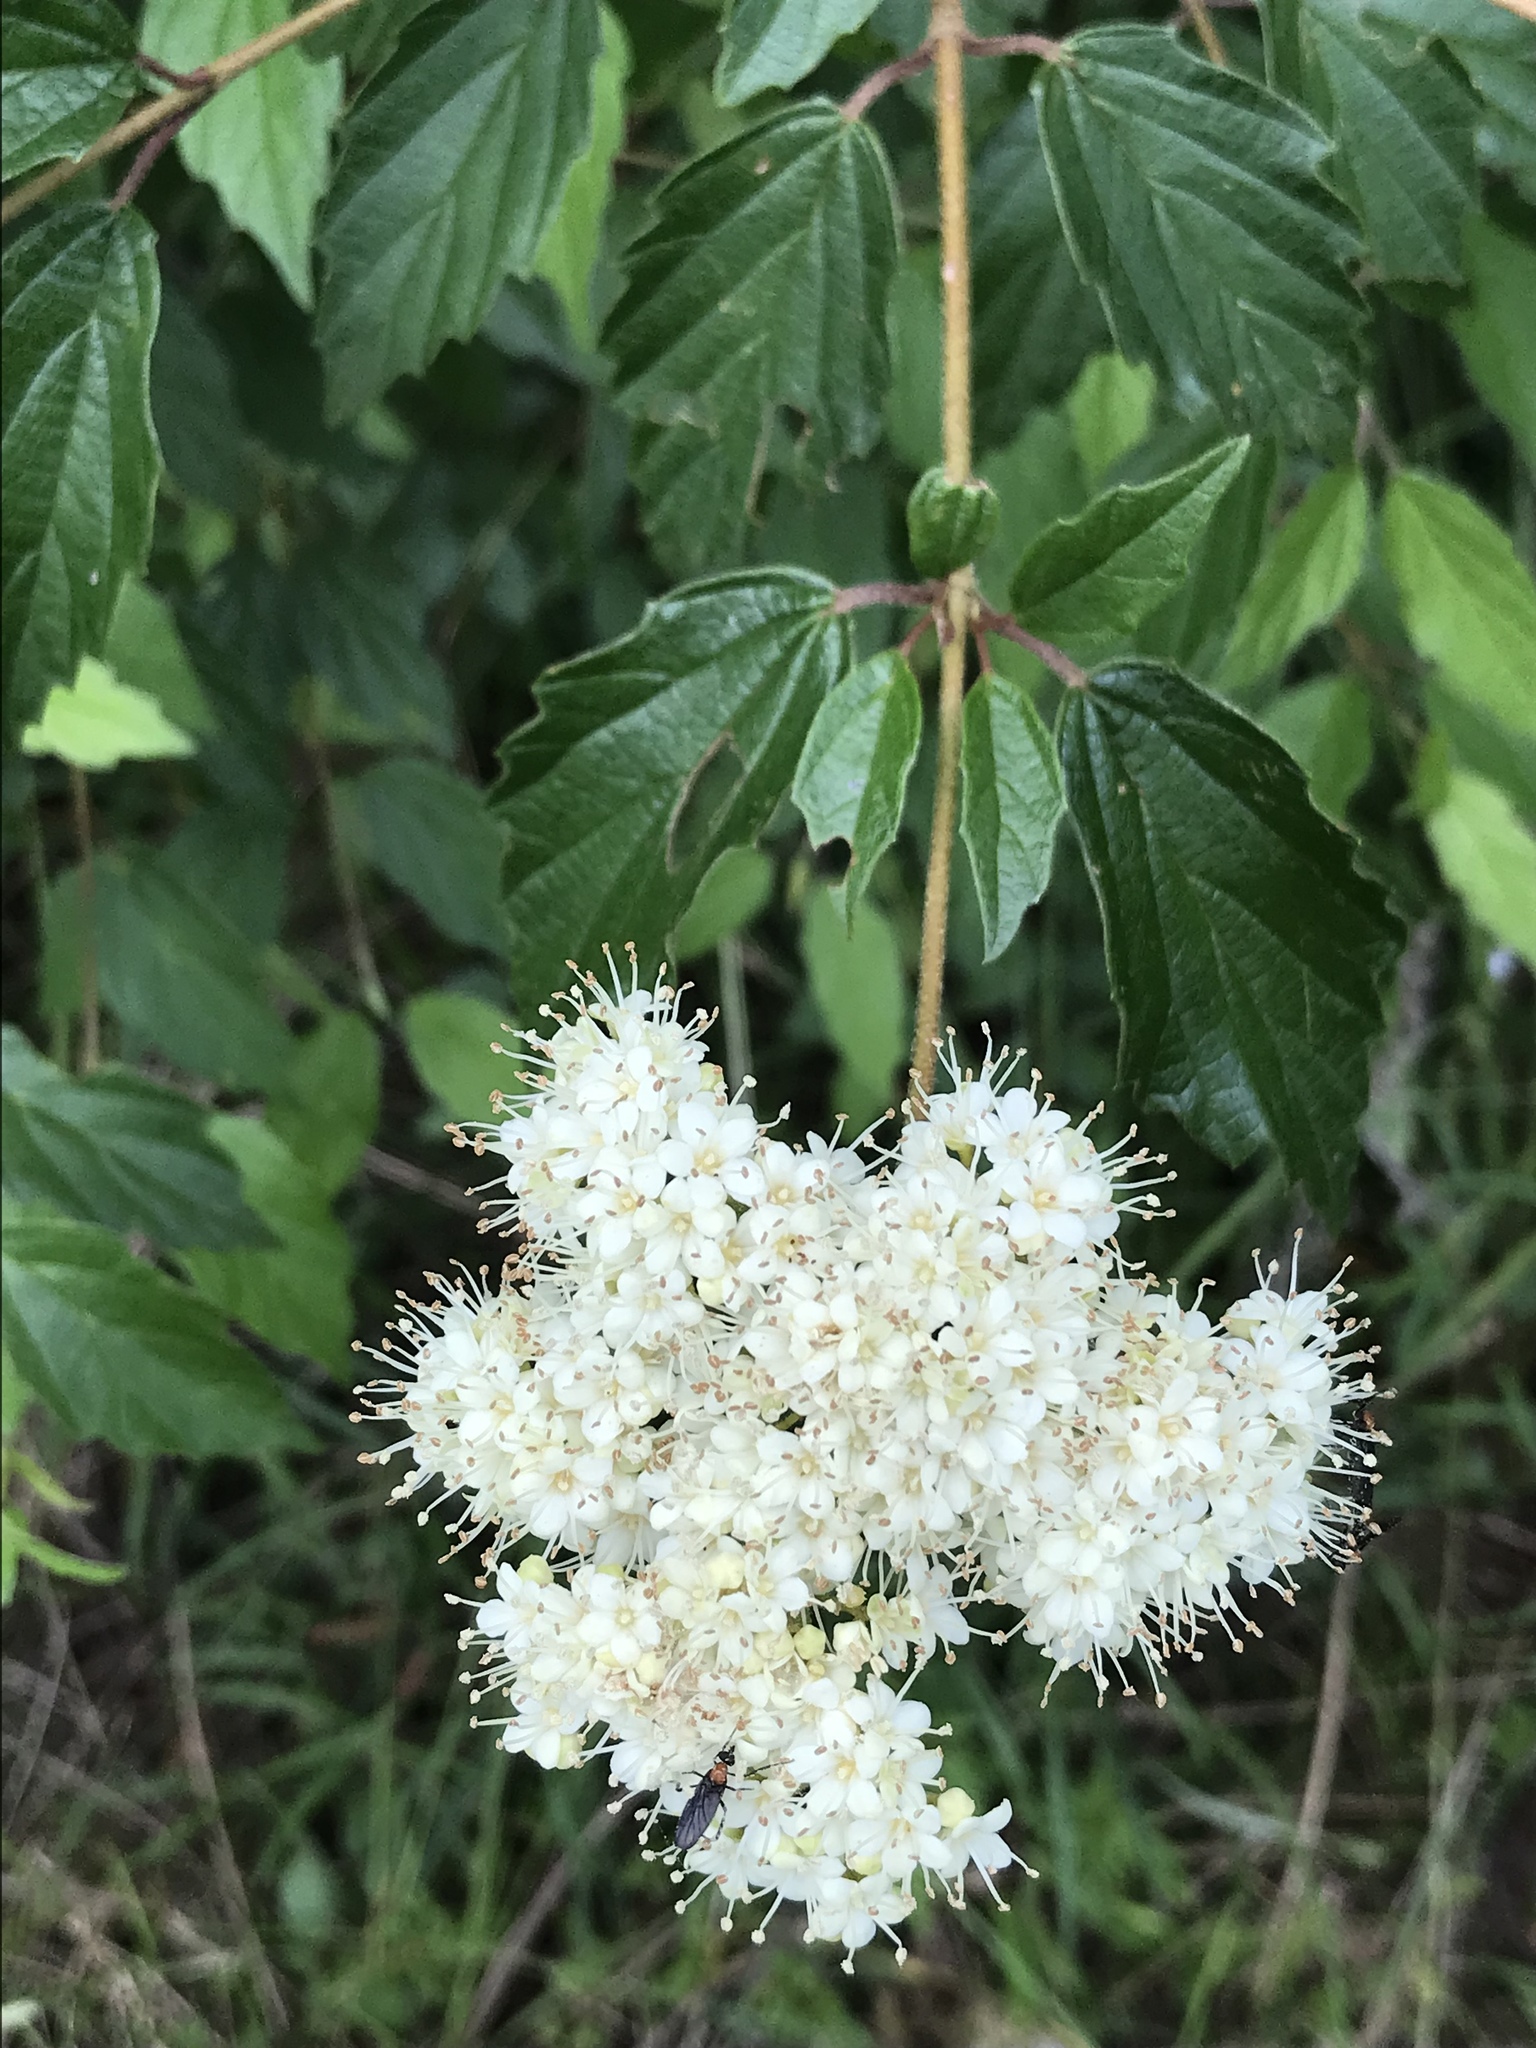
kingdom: Plantae
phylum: Tracheophyta
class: Magnoliopsida
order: Dipsacales
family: Viburnaceae
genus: Viburnum
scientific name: Viburnum scabrellum
